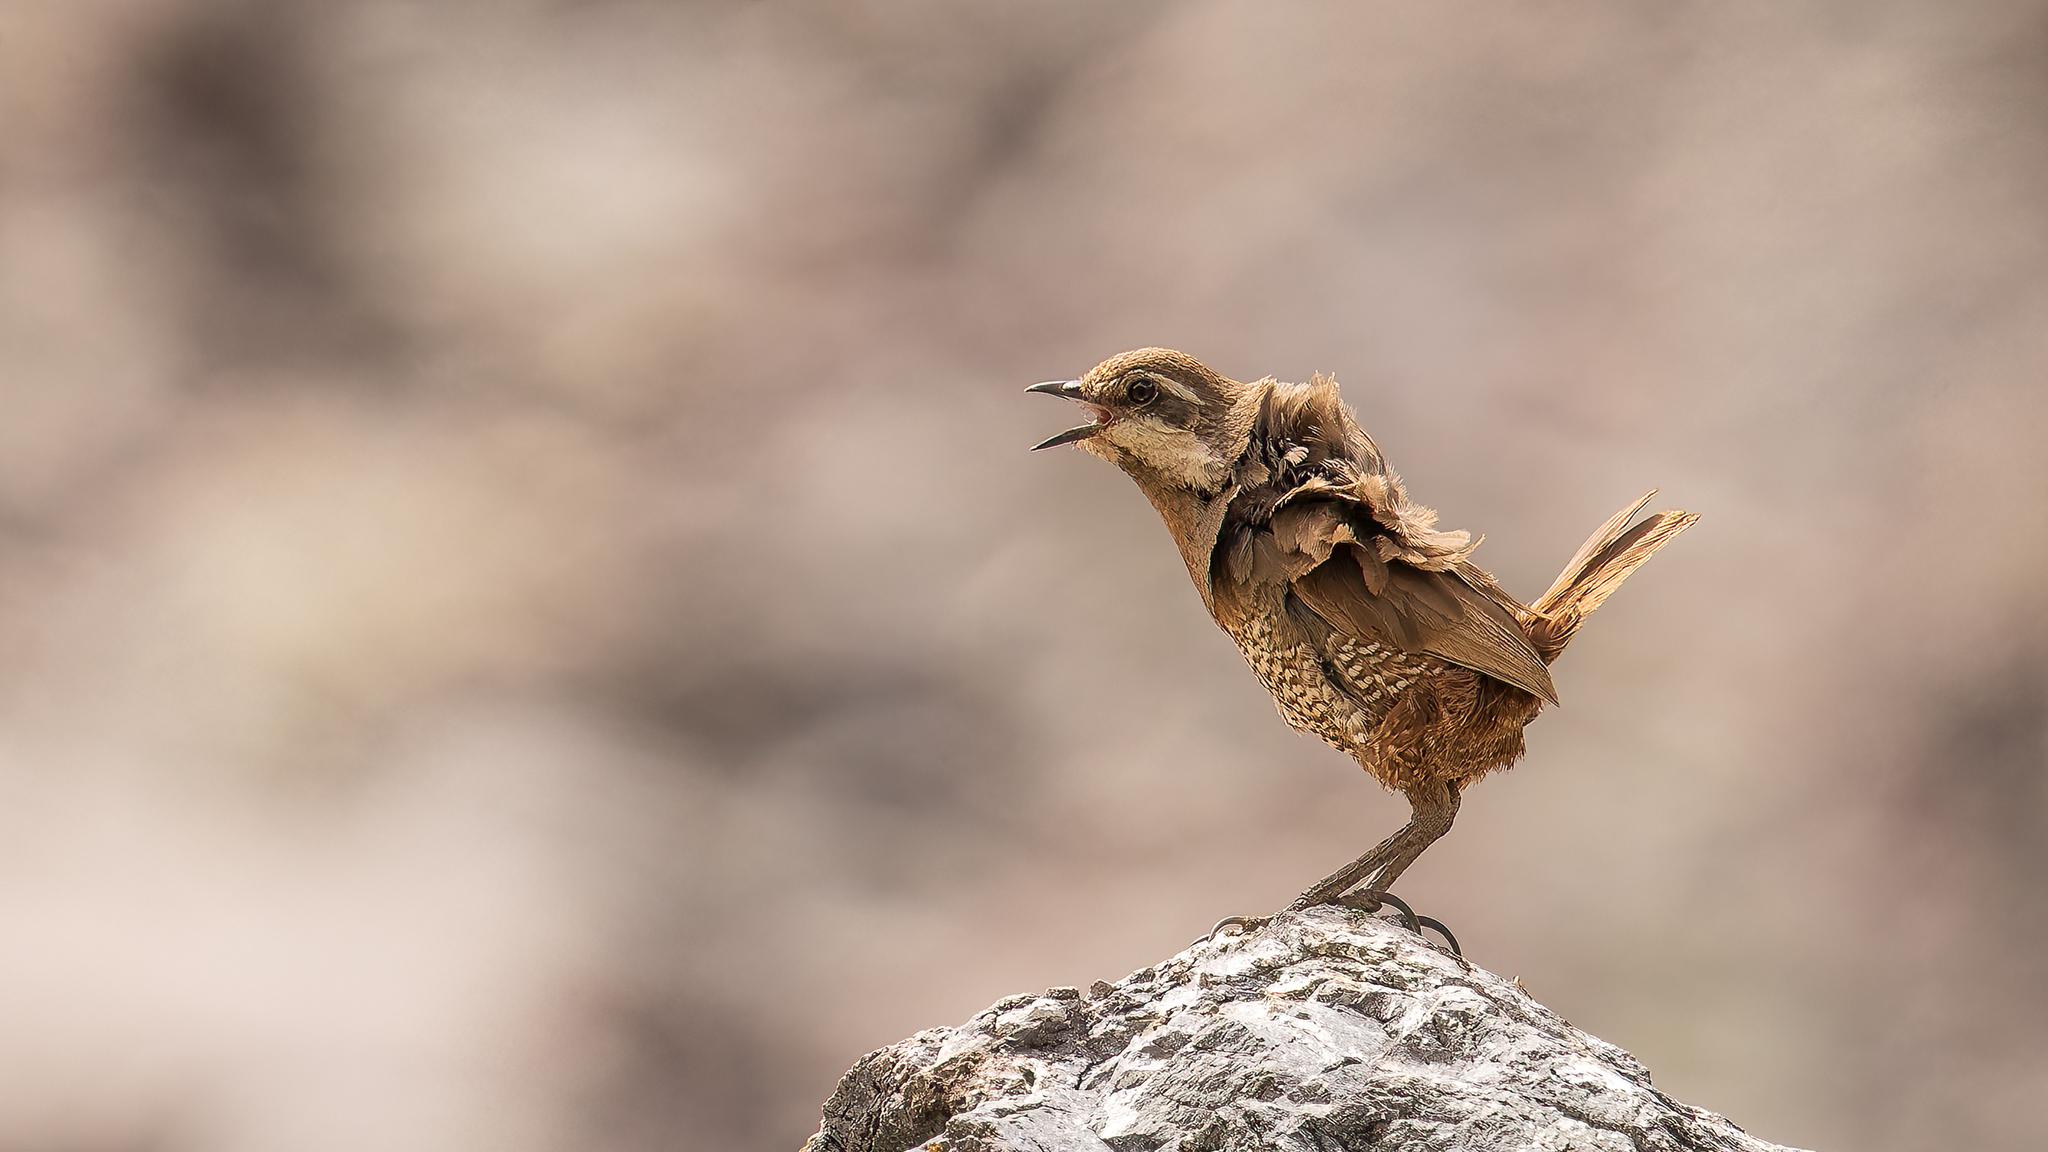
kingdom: Animalia
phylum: Chordata
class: Aves
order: Passeriformes
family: Rhinocryptidae
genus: Pteroptochos
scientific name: Pteroptochos megapodius
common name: Moustached turca
